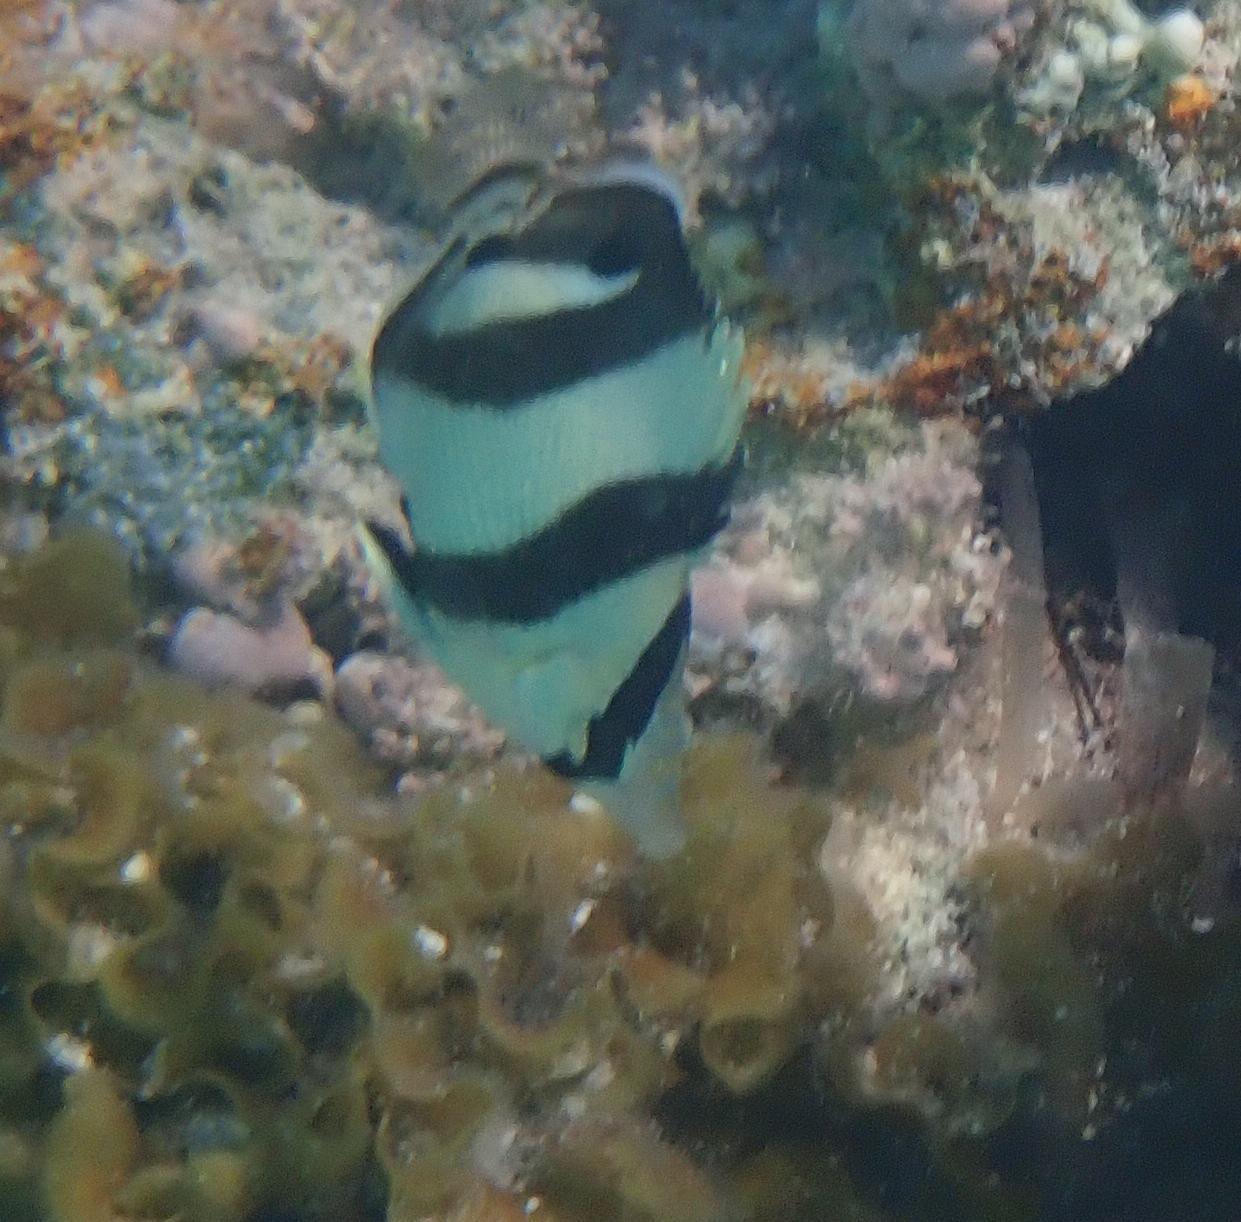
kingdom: Animalia
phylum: Chordata
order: Perciformes
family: Chaetodontidae
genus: Chaetodon
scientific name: Chaetodon striatus
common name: Banded butterflyfish
